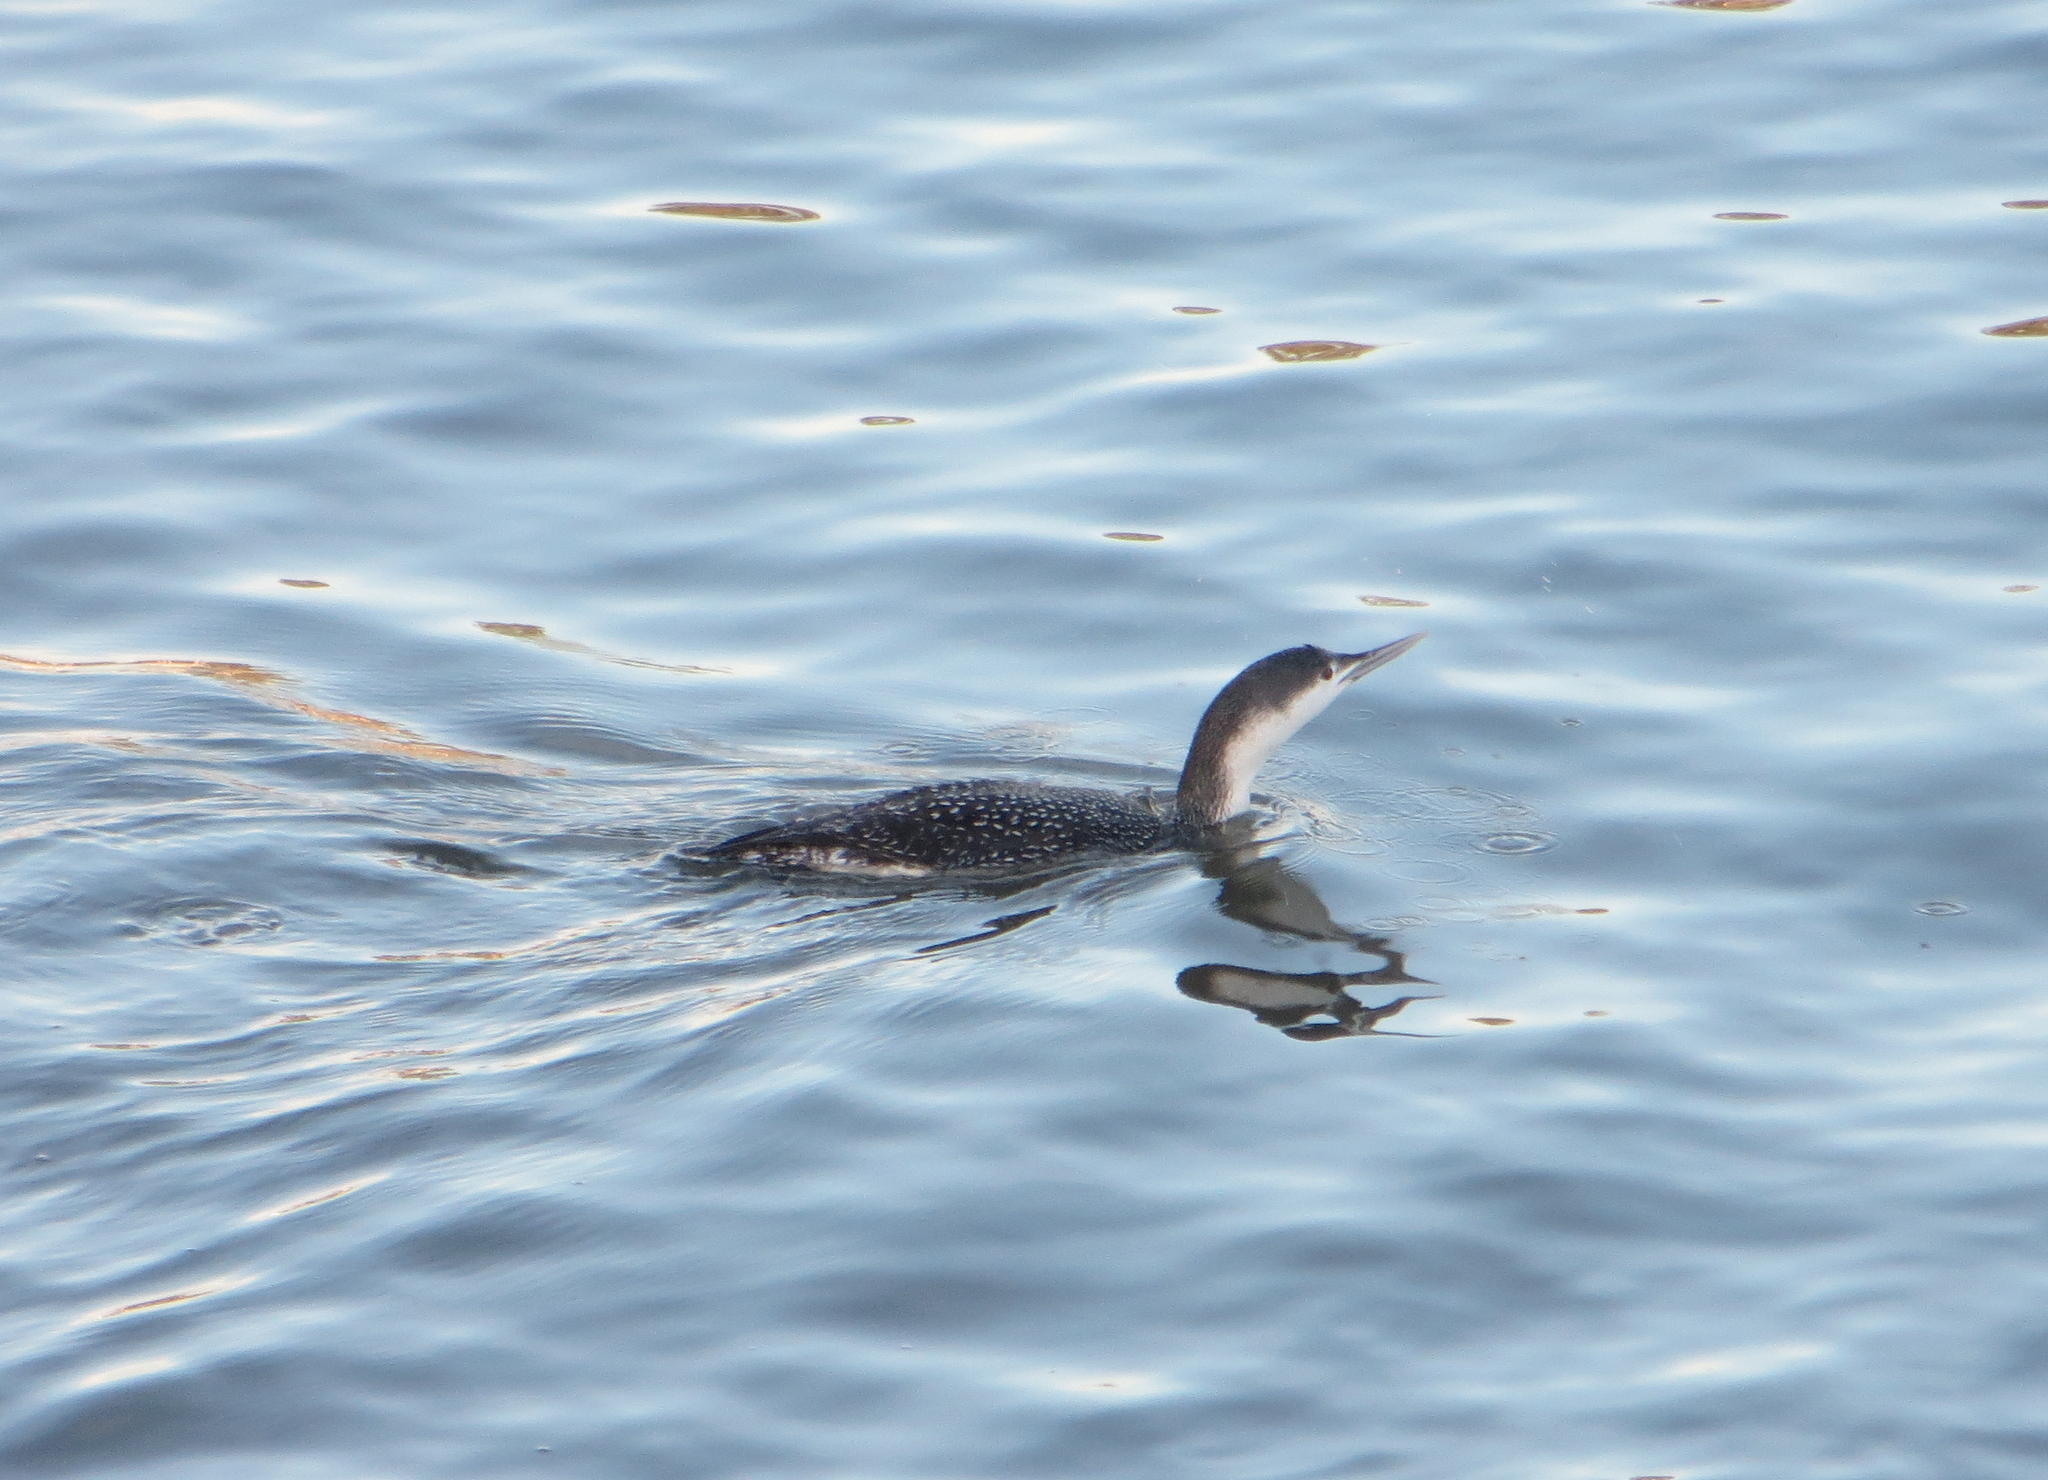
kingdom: Animalia
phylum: Chordata
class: Aves
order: Gaviiformes
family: Gaviidae
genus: Gavia
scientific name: Gavia stellata
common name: Red-throated loon
